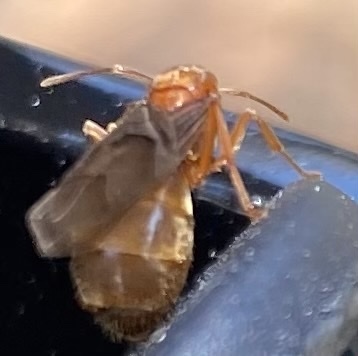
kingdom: Animalia
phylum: Arthropoda
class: Insecta
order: Hymenoptera
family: Formicidae
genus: Prenolepis
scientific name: Prenolepis imparis
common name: Small honey ant
